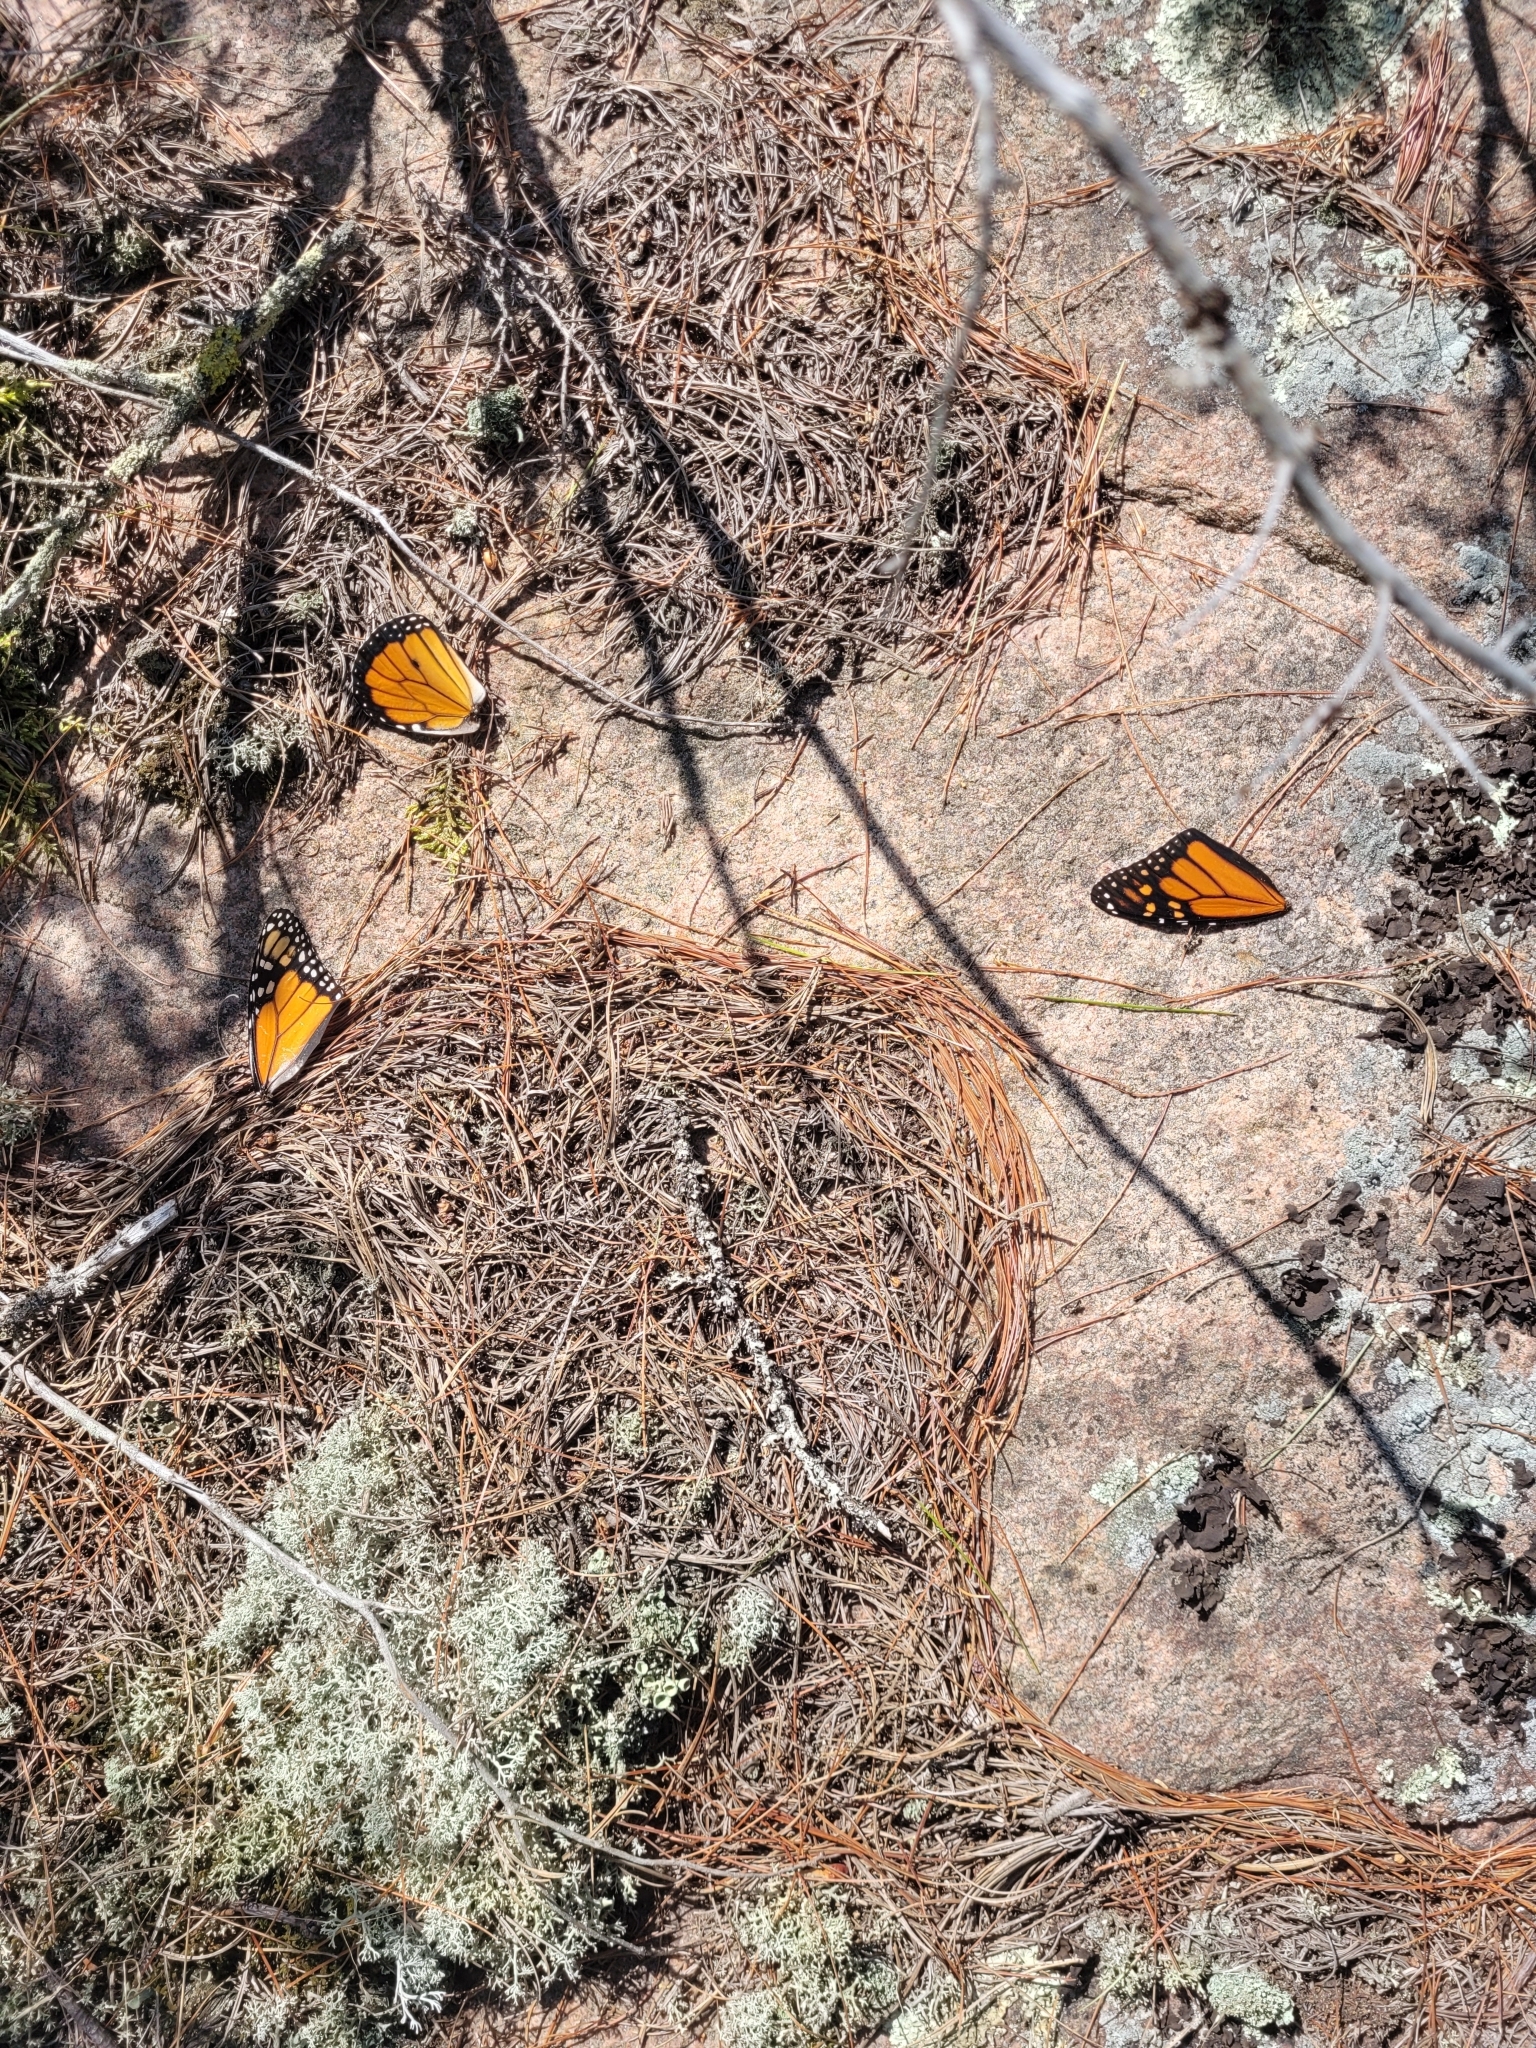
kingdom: Animalia
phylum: Arthropoda
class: Insecta
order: Lepidoptera
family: Nymphalidae
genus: Danaus
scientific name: Danaus plexippus
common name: Monarch
